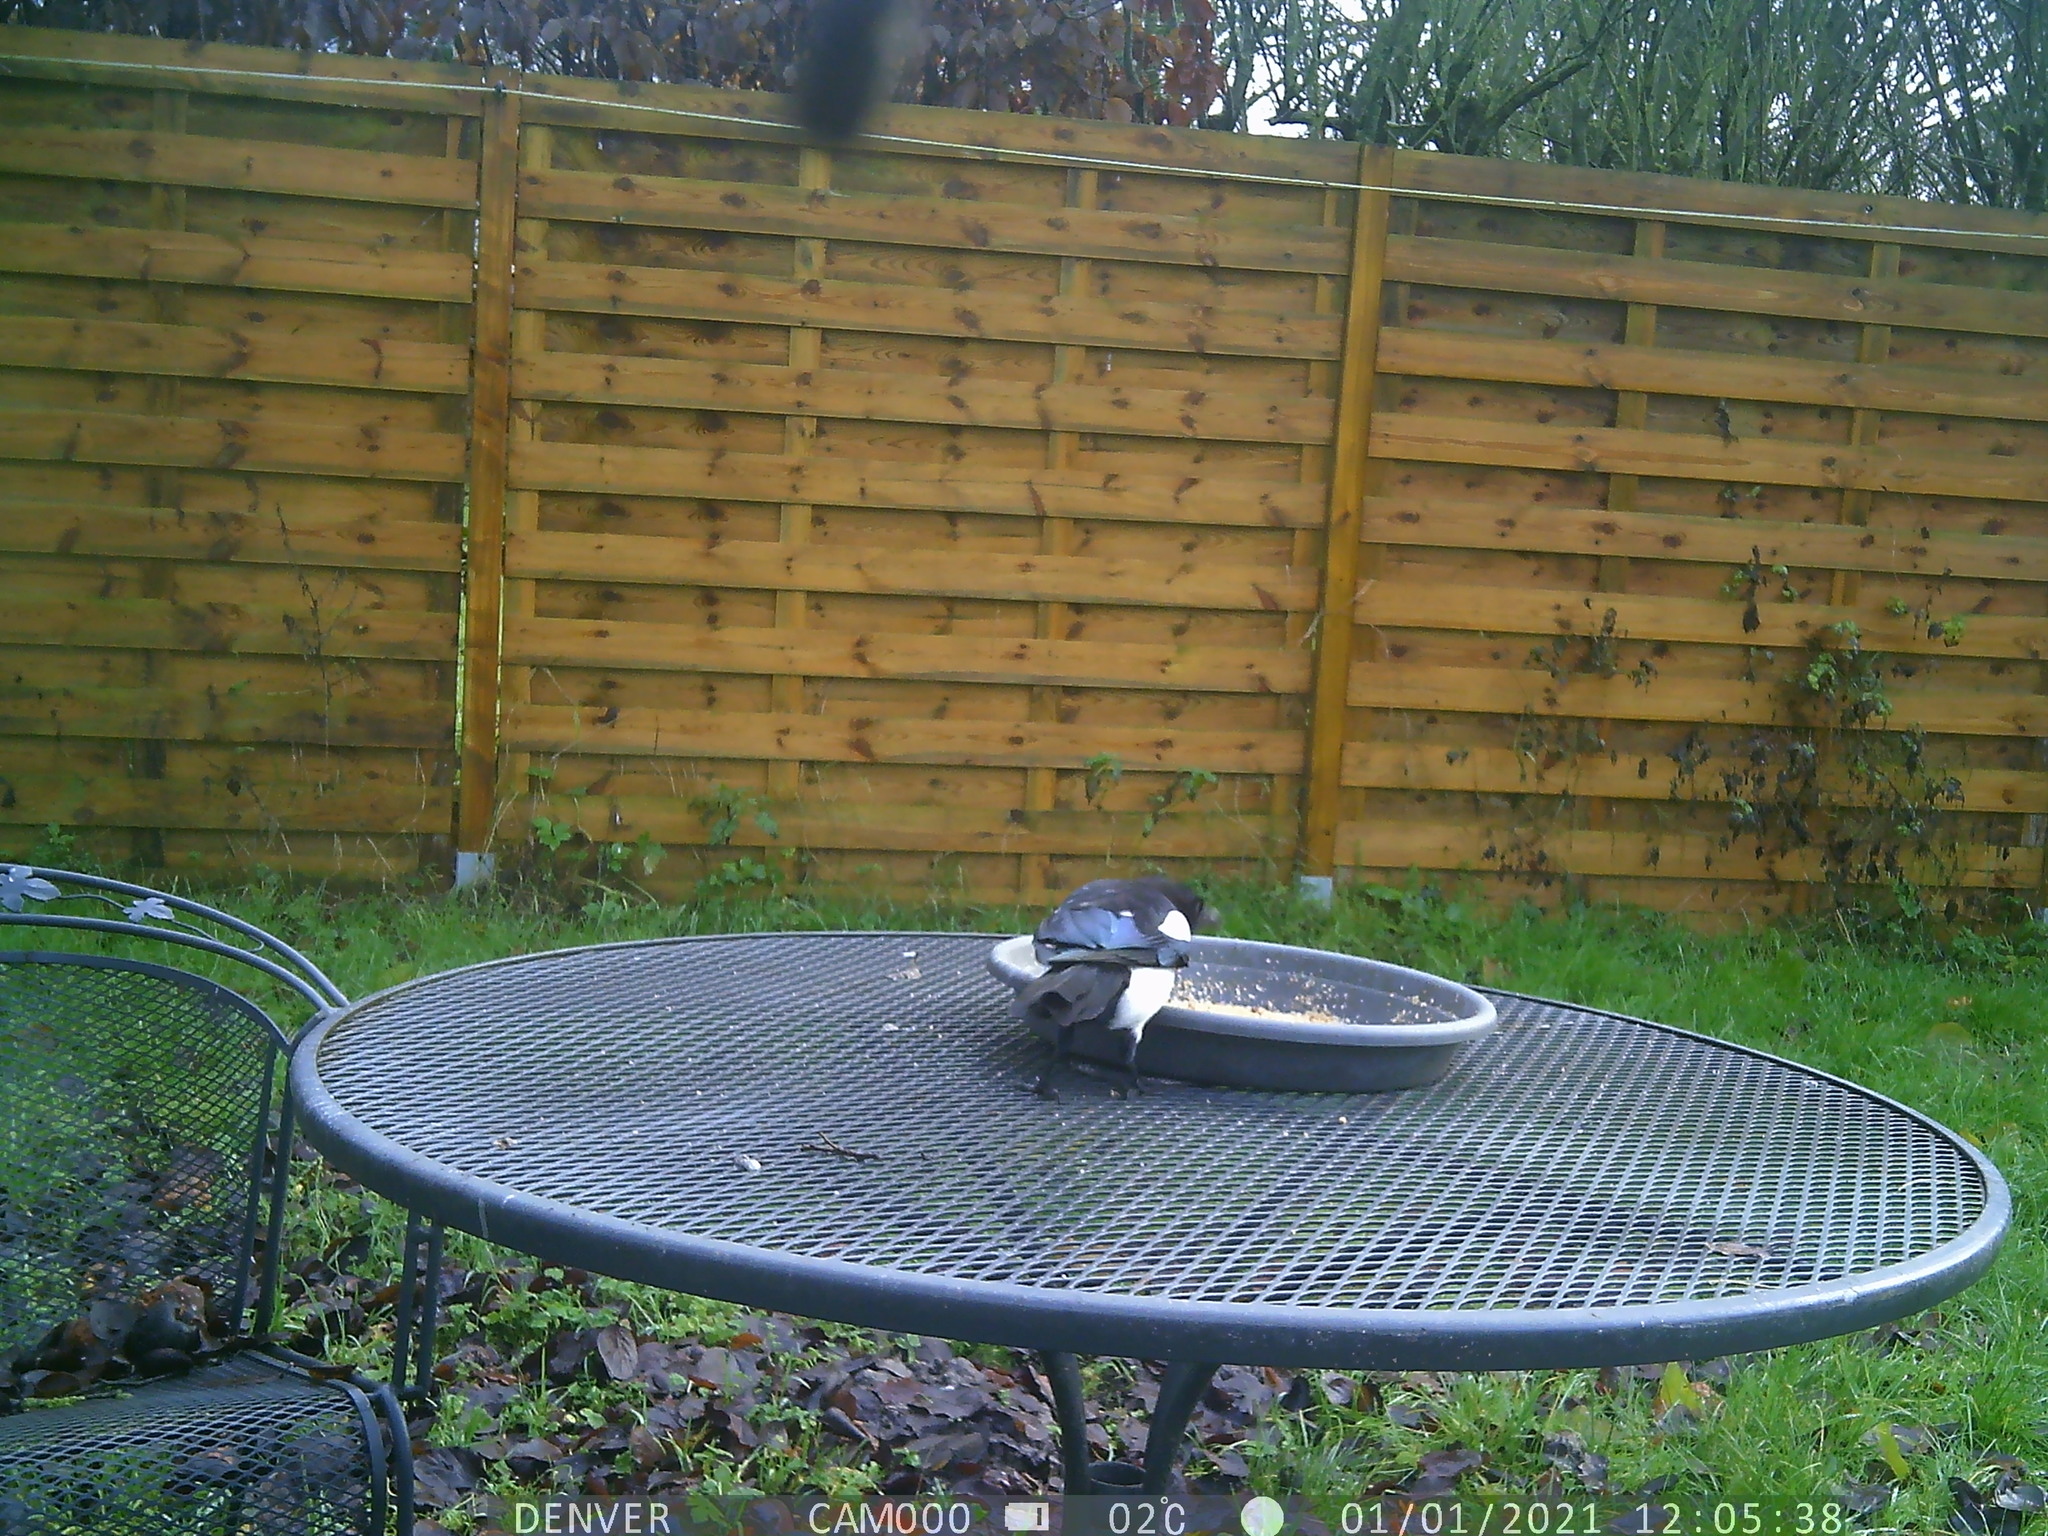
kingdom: Animalia
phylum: Chordata
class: Aves
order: Passeriformes
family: Corvidae
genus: Pica
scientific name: Pica pica
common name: Eurasian magpie
